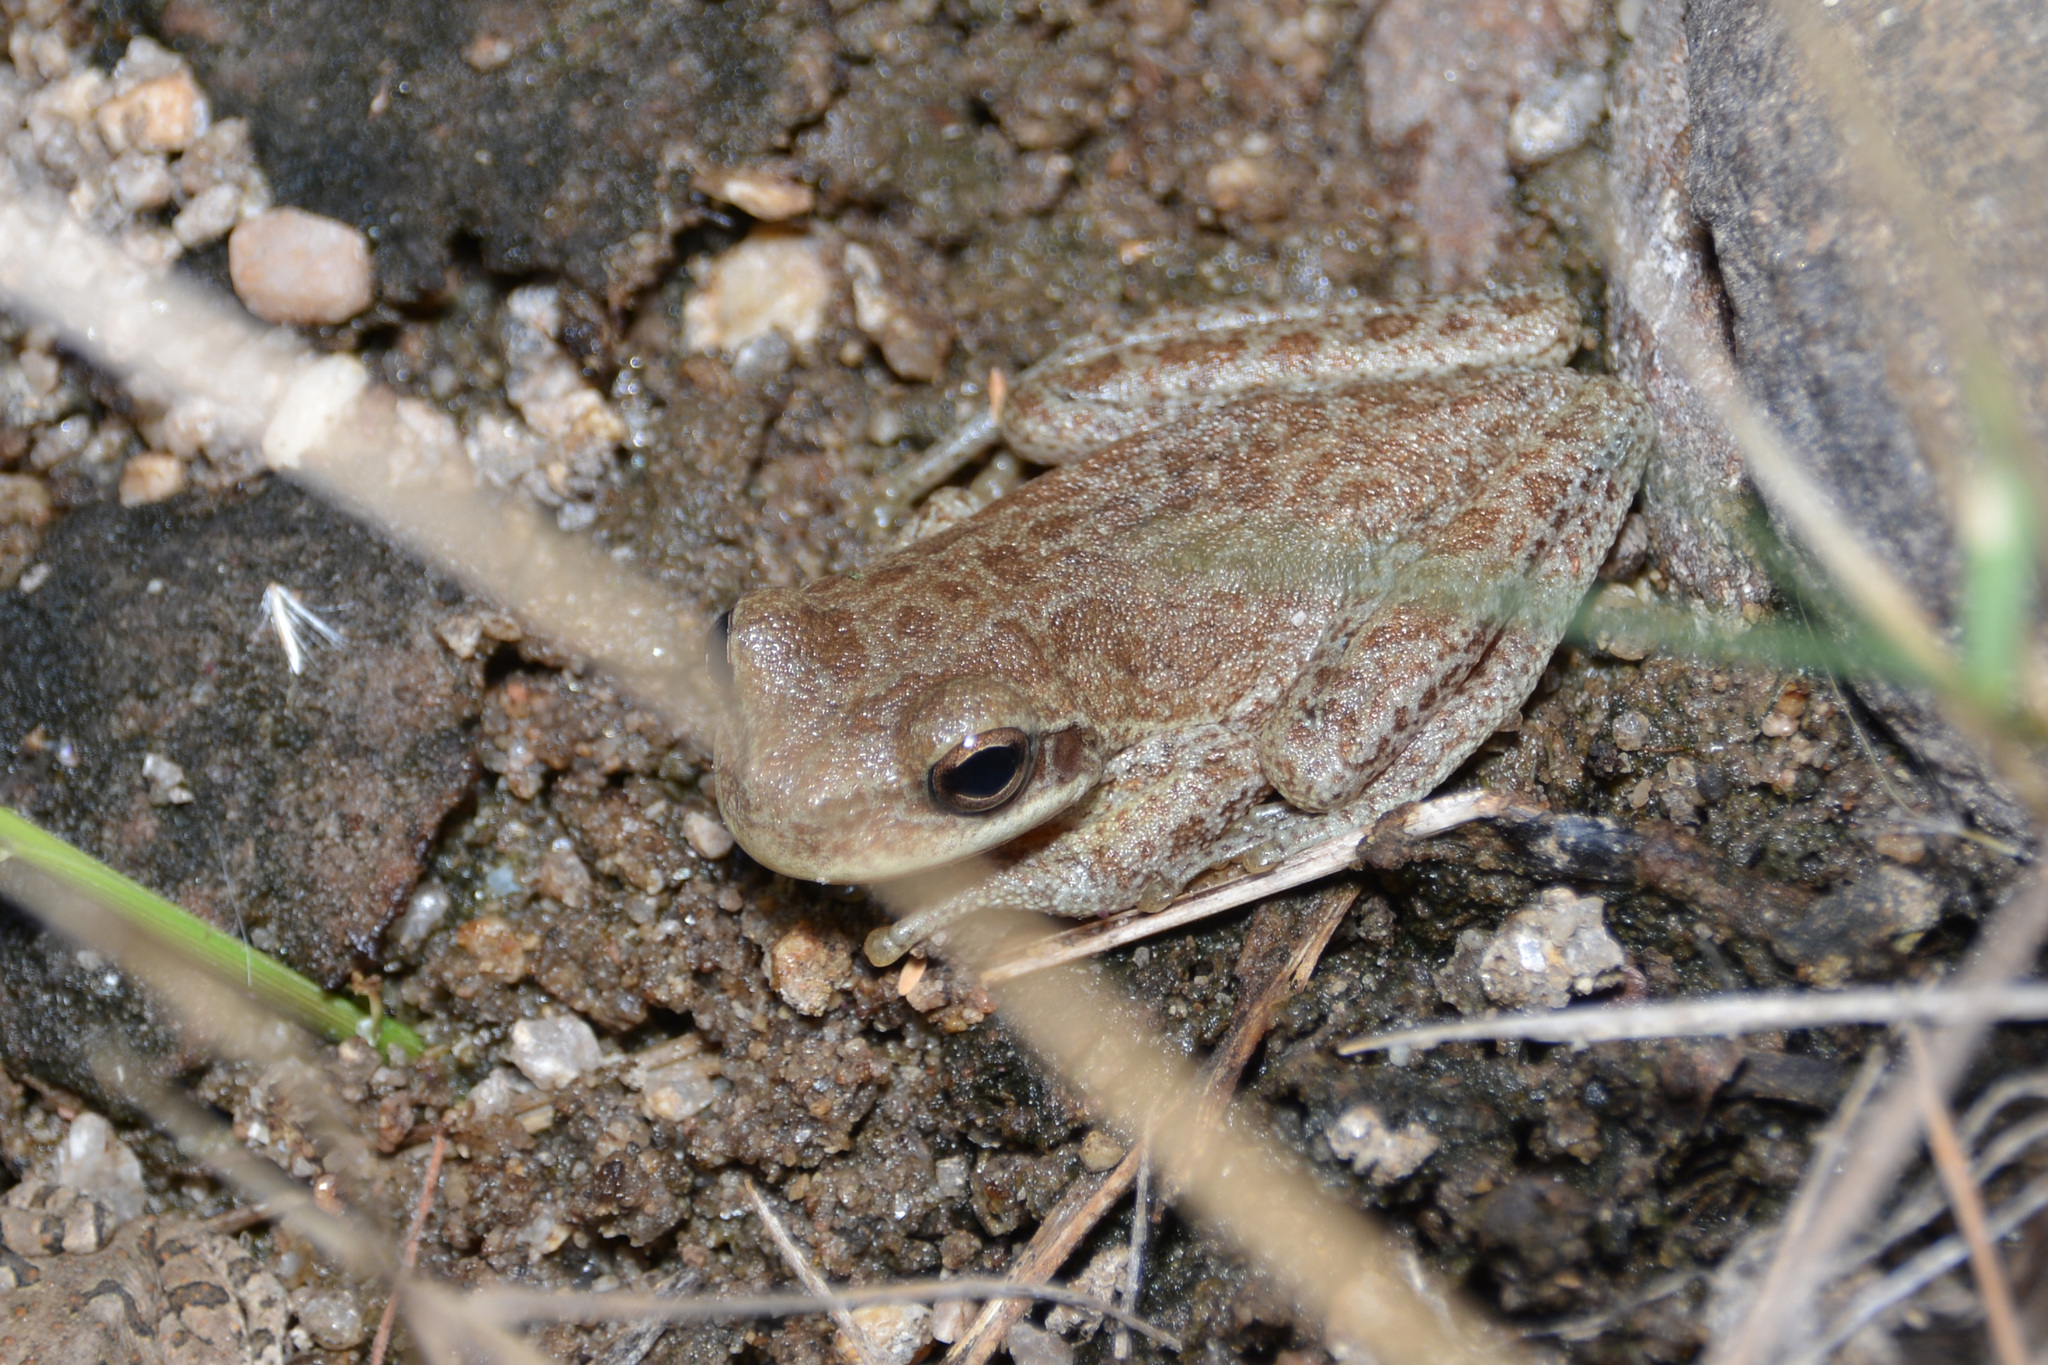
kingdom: Animalia
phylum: Chordata
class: Amphibia
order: Anura
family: Hylidae
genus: Boana
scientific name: Boana cordobae
